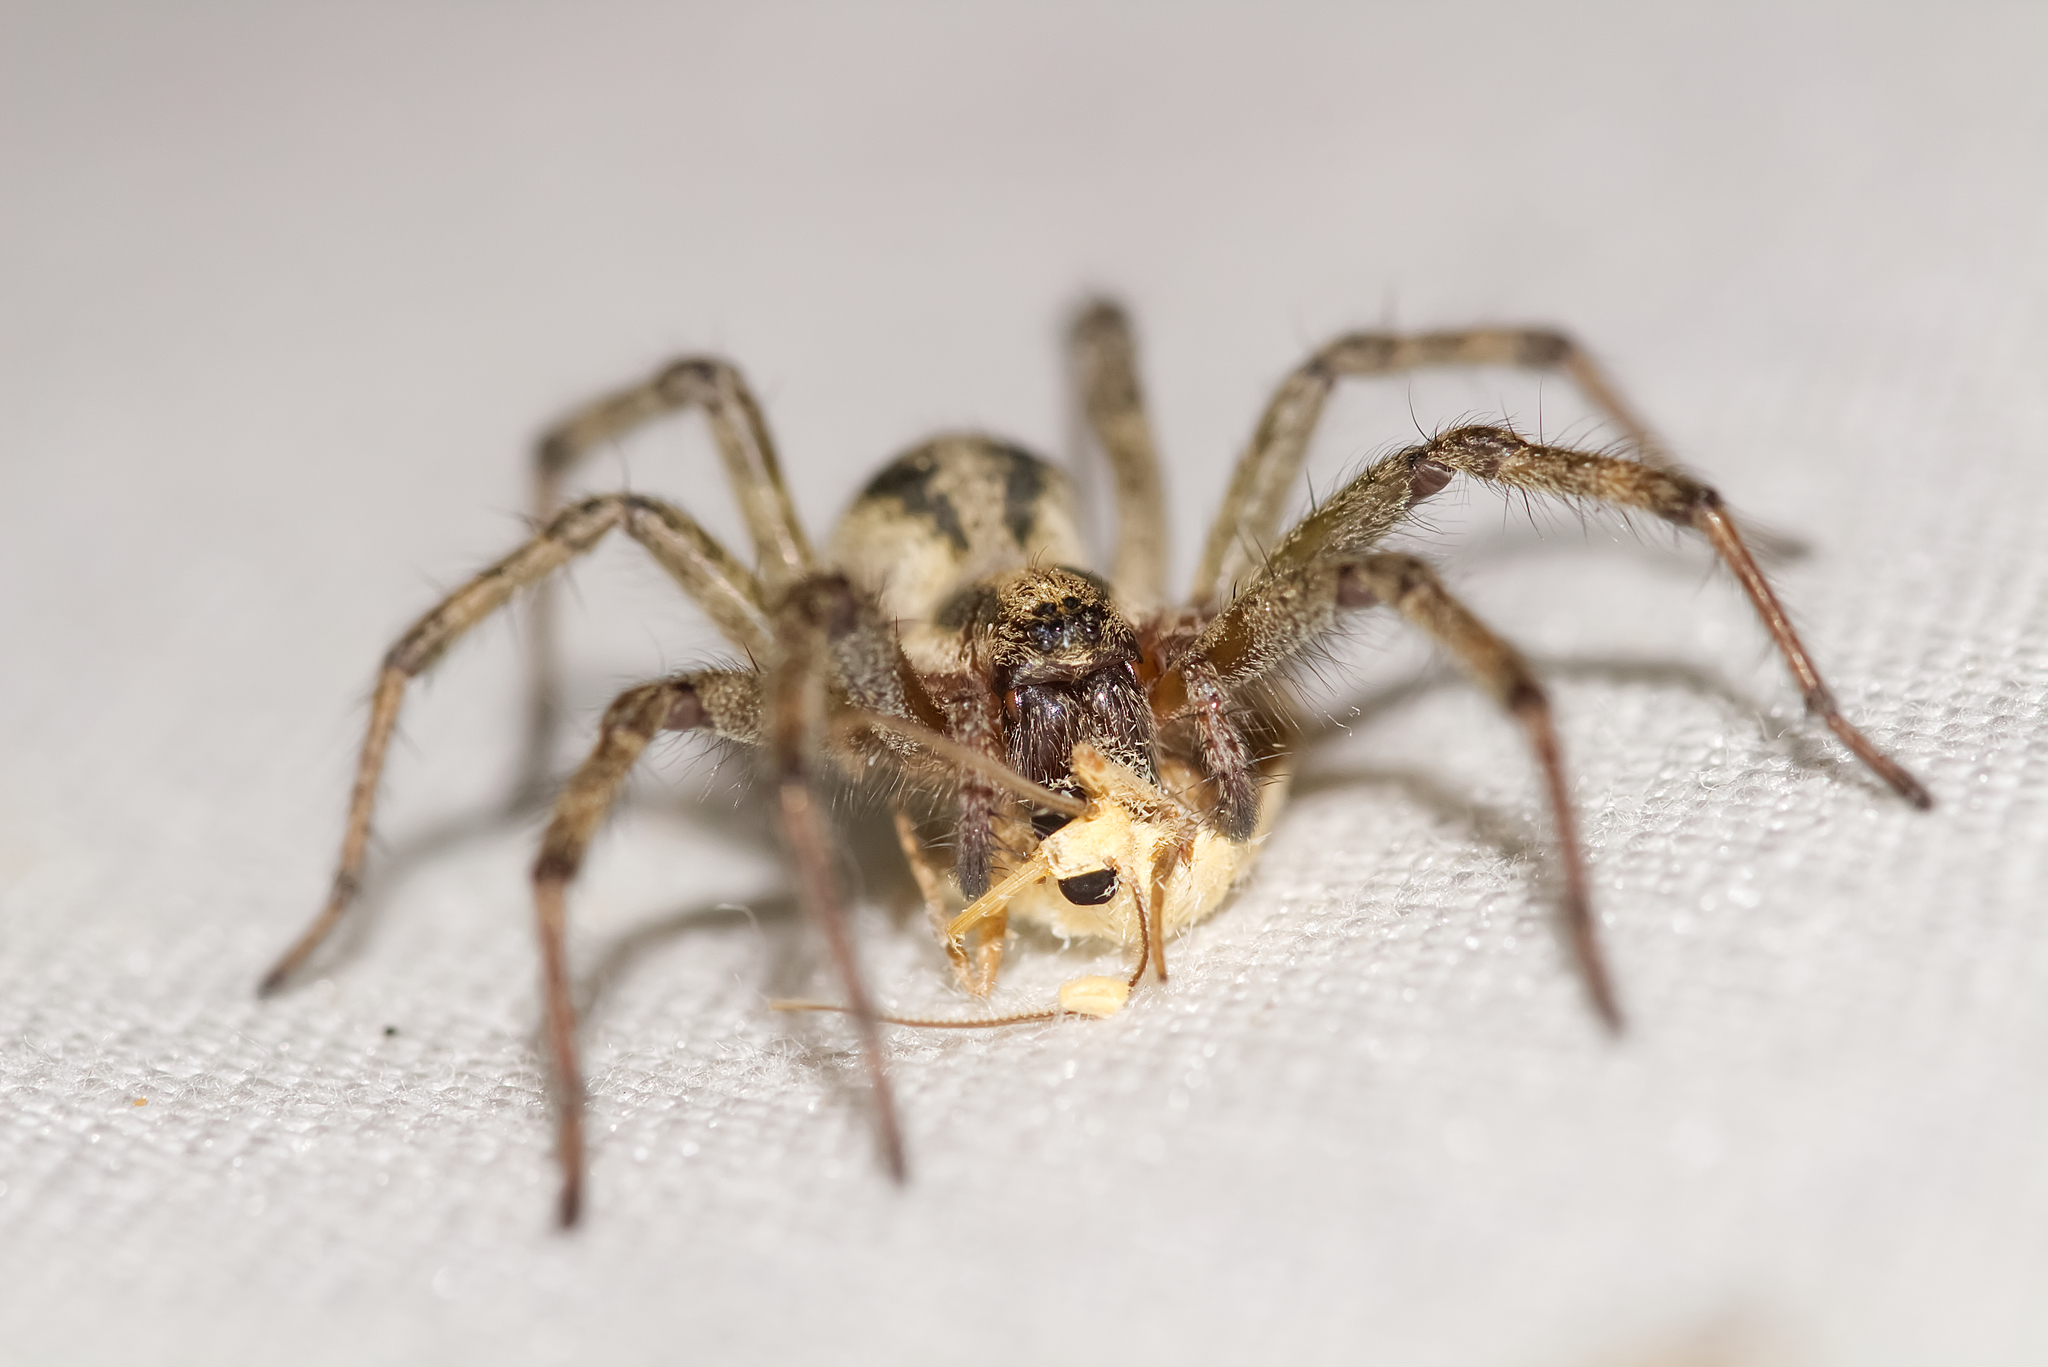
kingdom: Animalia
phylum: Arthropoda
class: Arachnida
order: Araneae
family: Agelenidae
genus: Agelena
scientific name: Agelena labyrinthica
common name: Labyrinth spider
